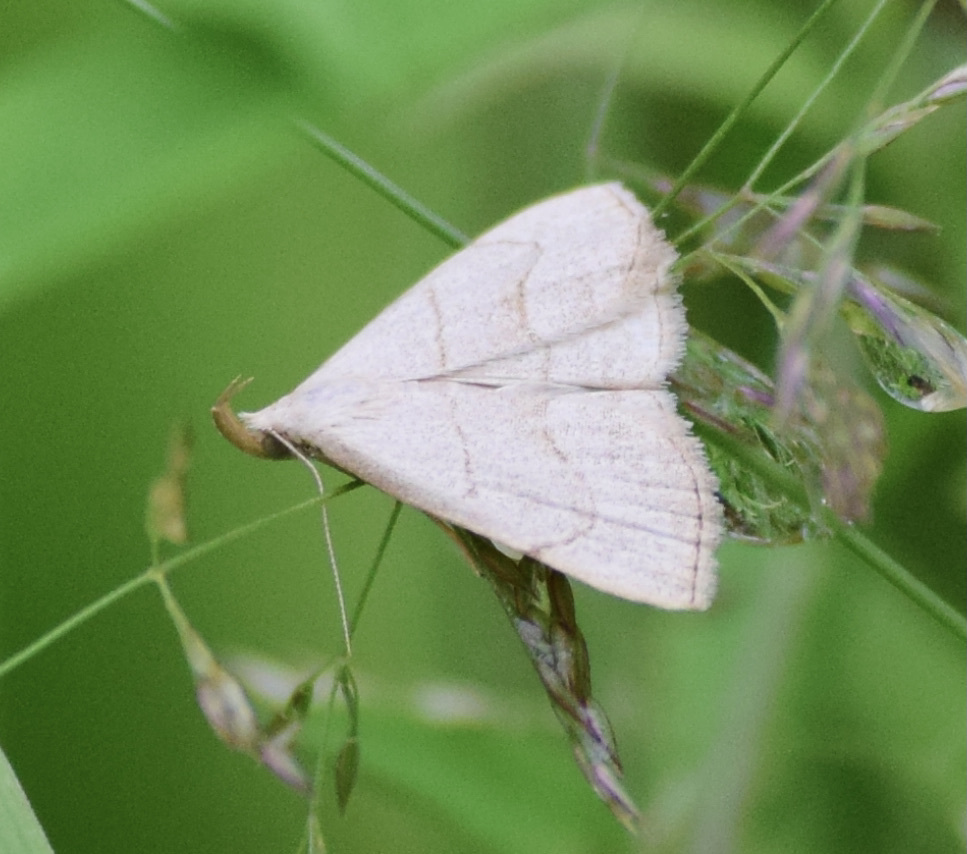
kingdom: Animalia
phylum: Arthropoda
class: Insecta
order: Lepidoptera
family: Erebidae
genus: Macrochilo
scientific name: Macrochilo litophora
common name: Brown-lined owlet
